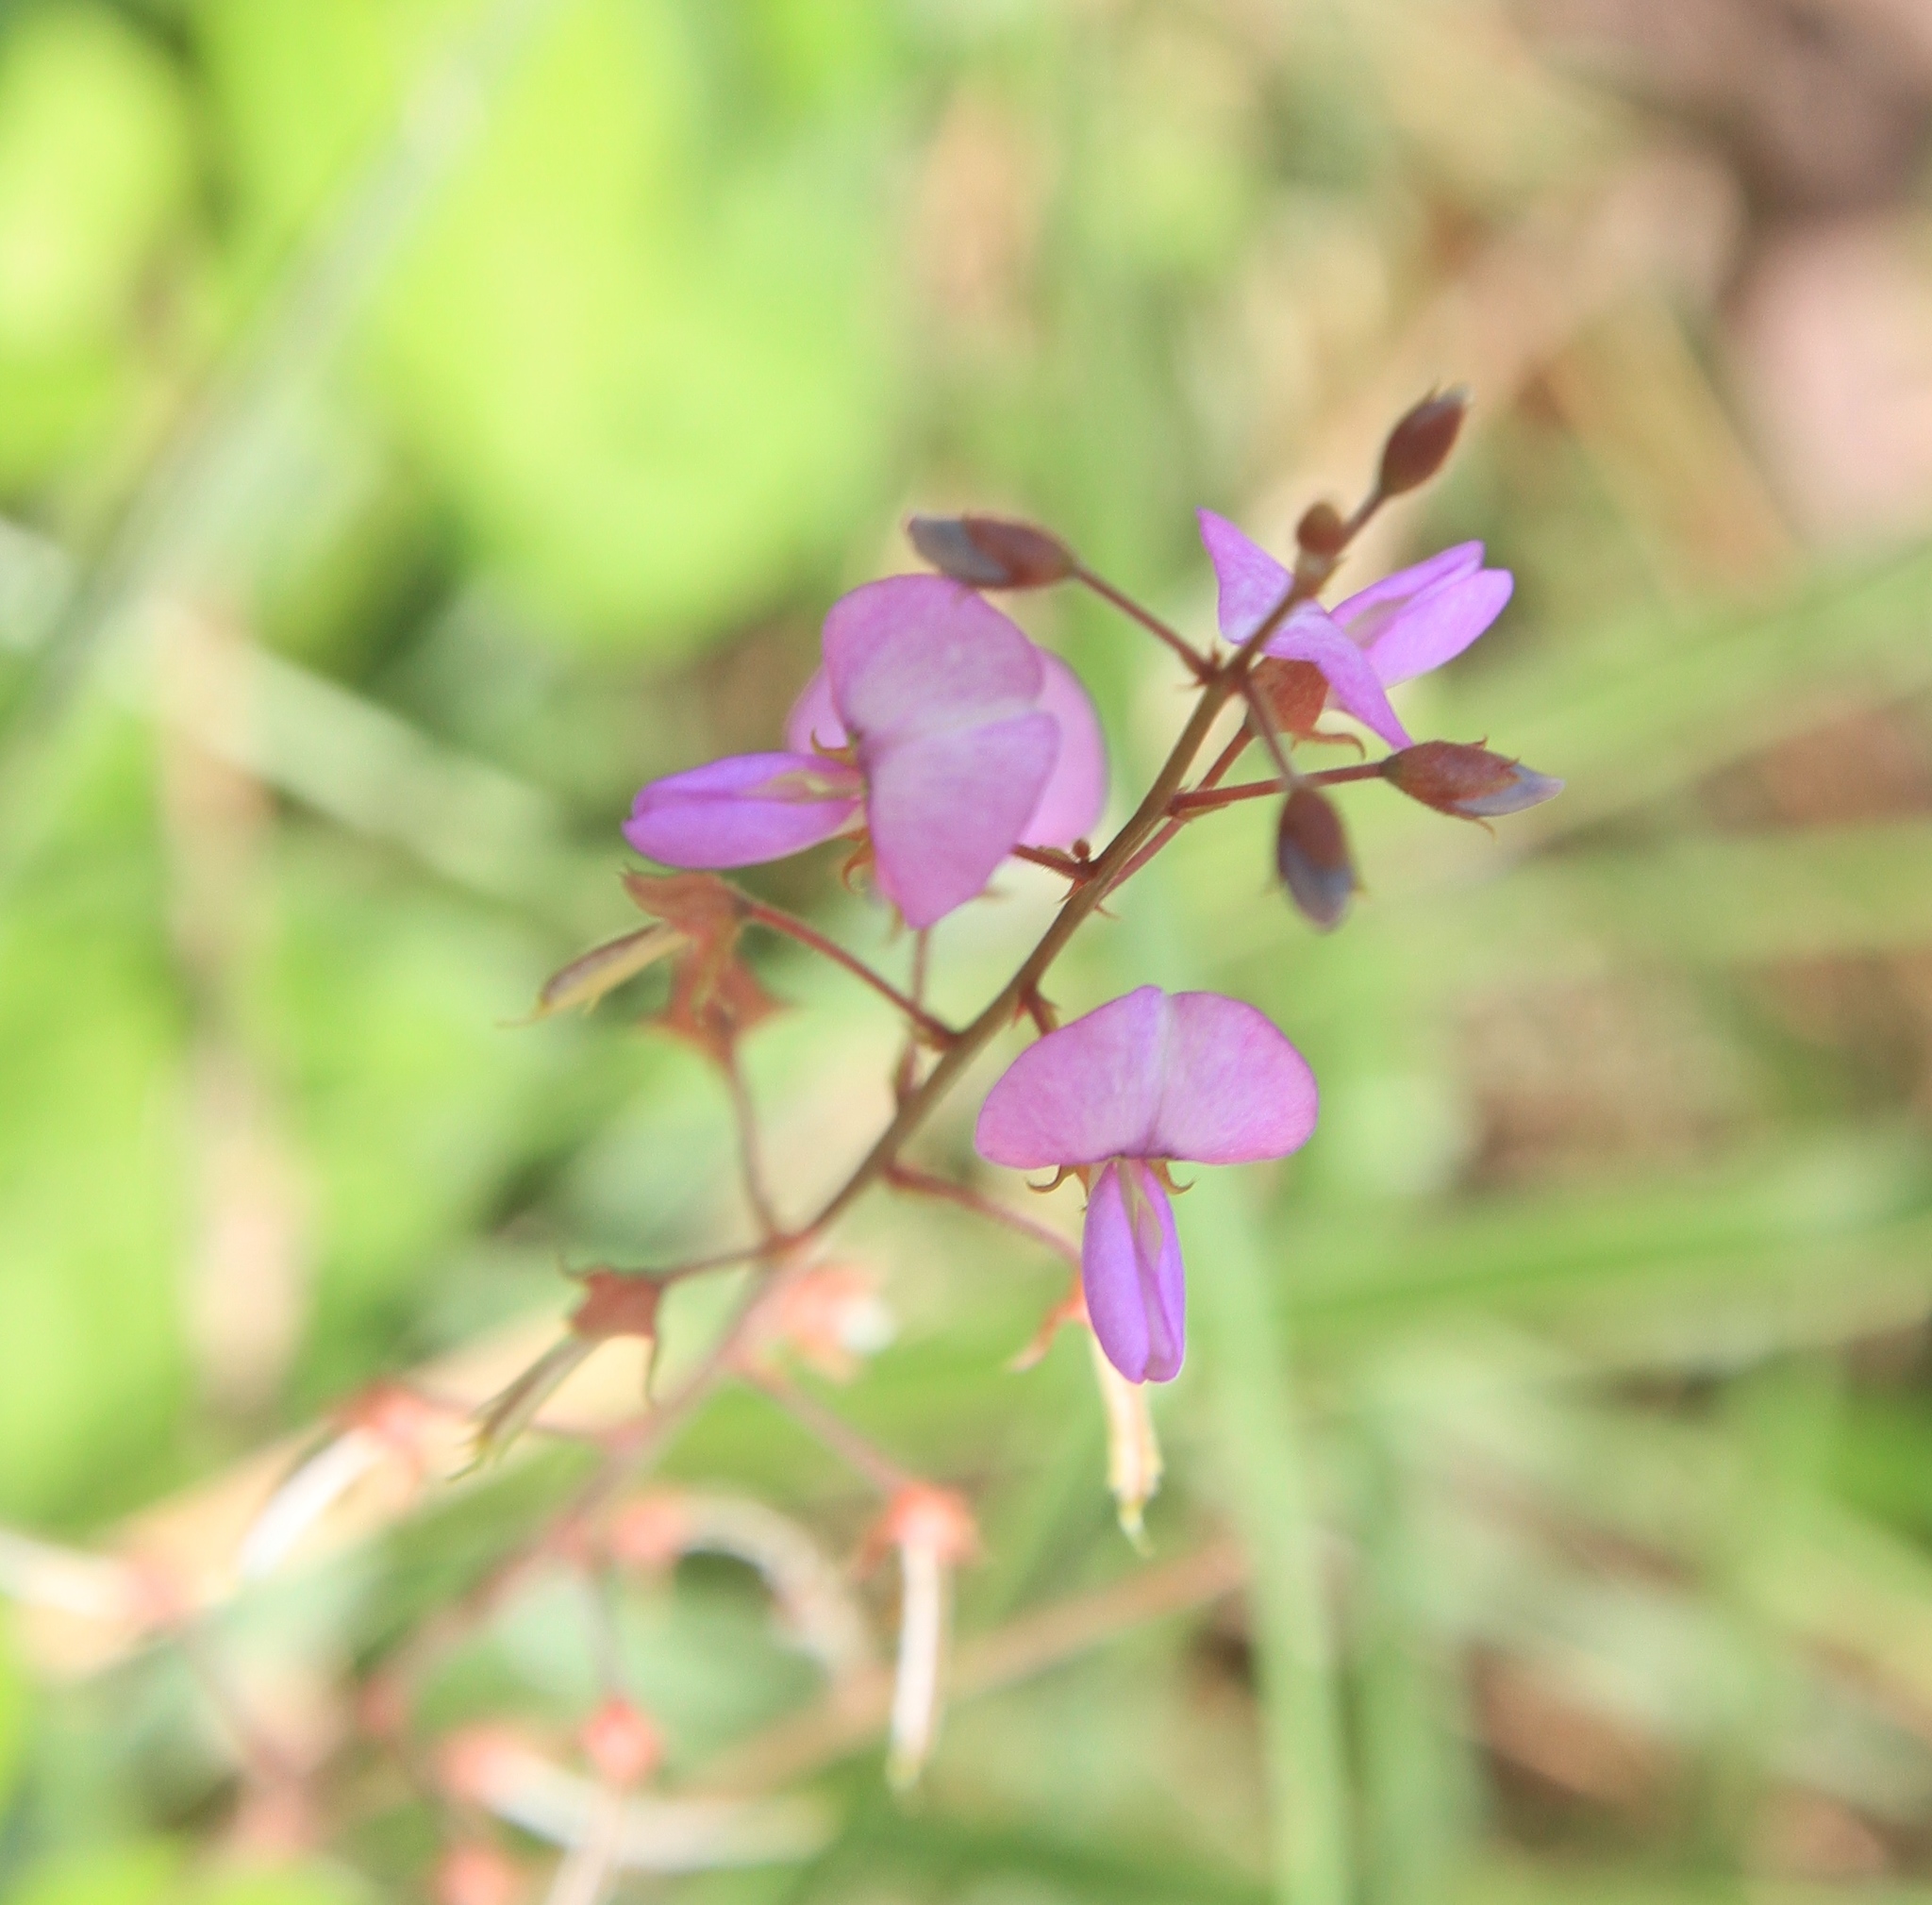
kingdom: Plantae
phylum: Tracheophyta
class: Magnoliopsida
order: Fabales
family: Fabaceae
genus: Desmodium
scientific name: Desmodium incanum
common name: Tickclover
